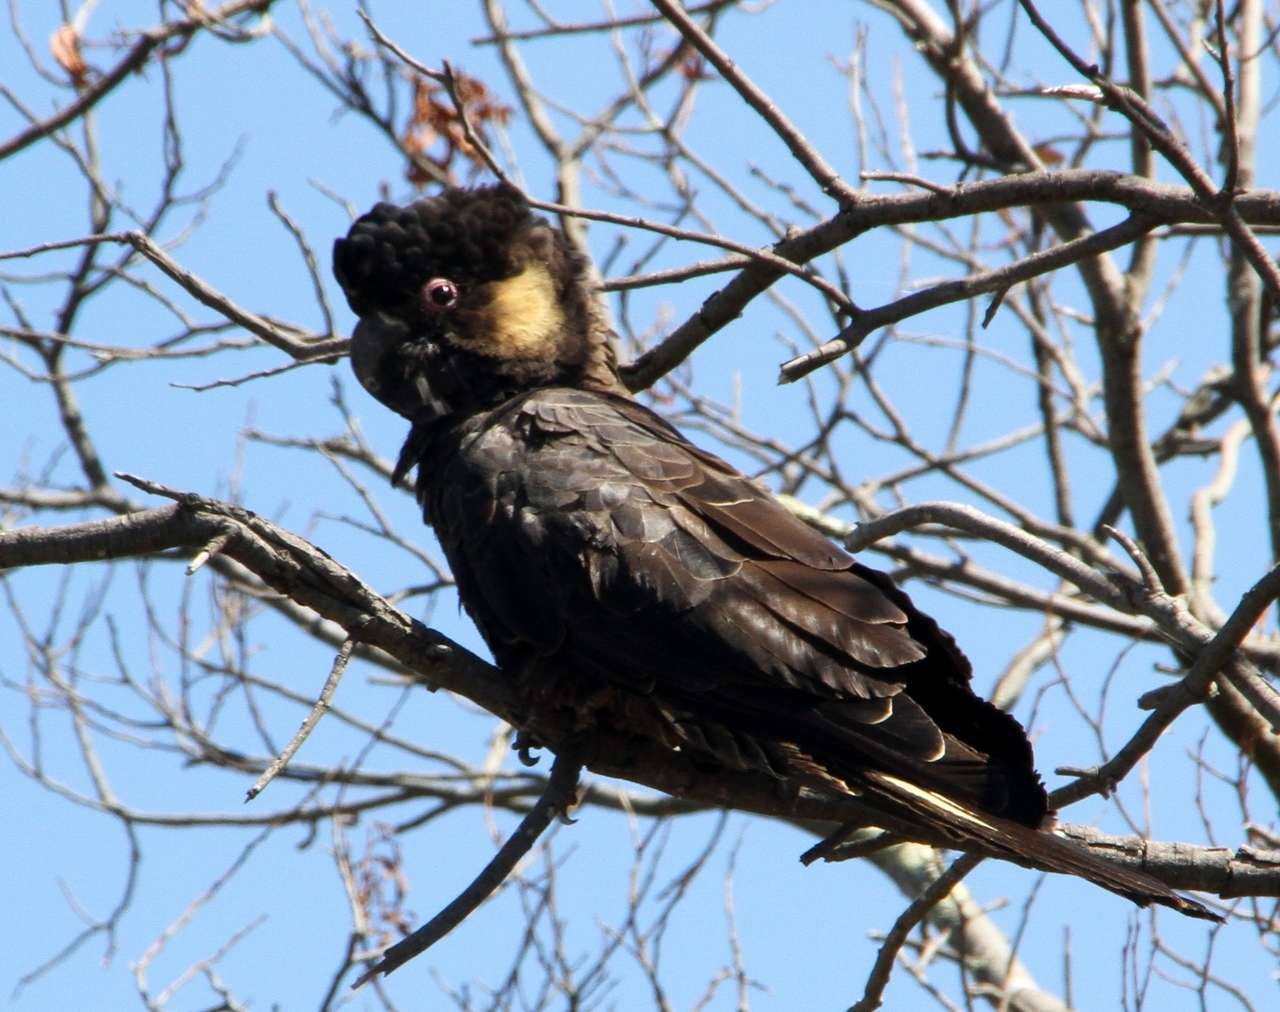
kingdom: Animalia
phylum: Chordata
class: Aves
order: Psittaciformes
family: Cacatuidae
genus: Zanda
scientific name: Zanda funerea
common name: Yellow-tailed black-cockatoo
